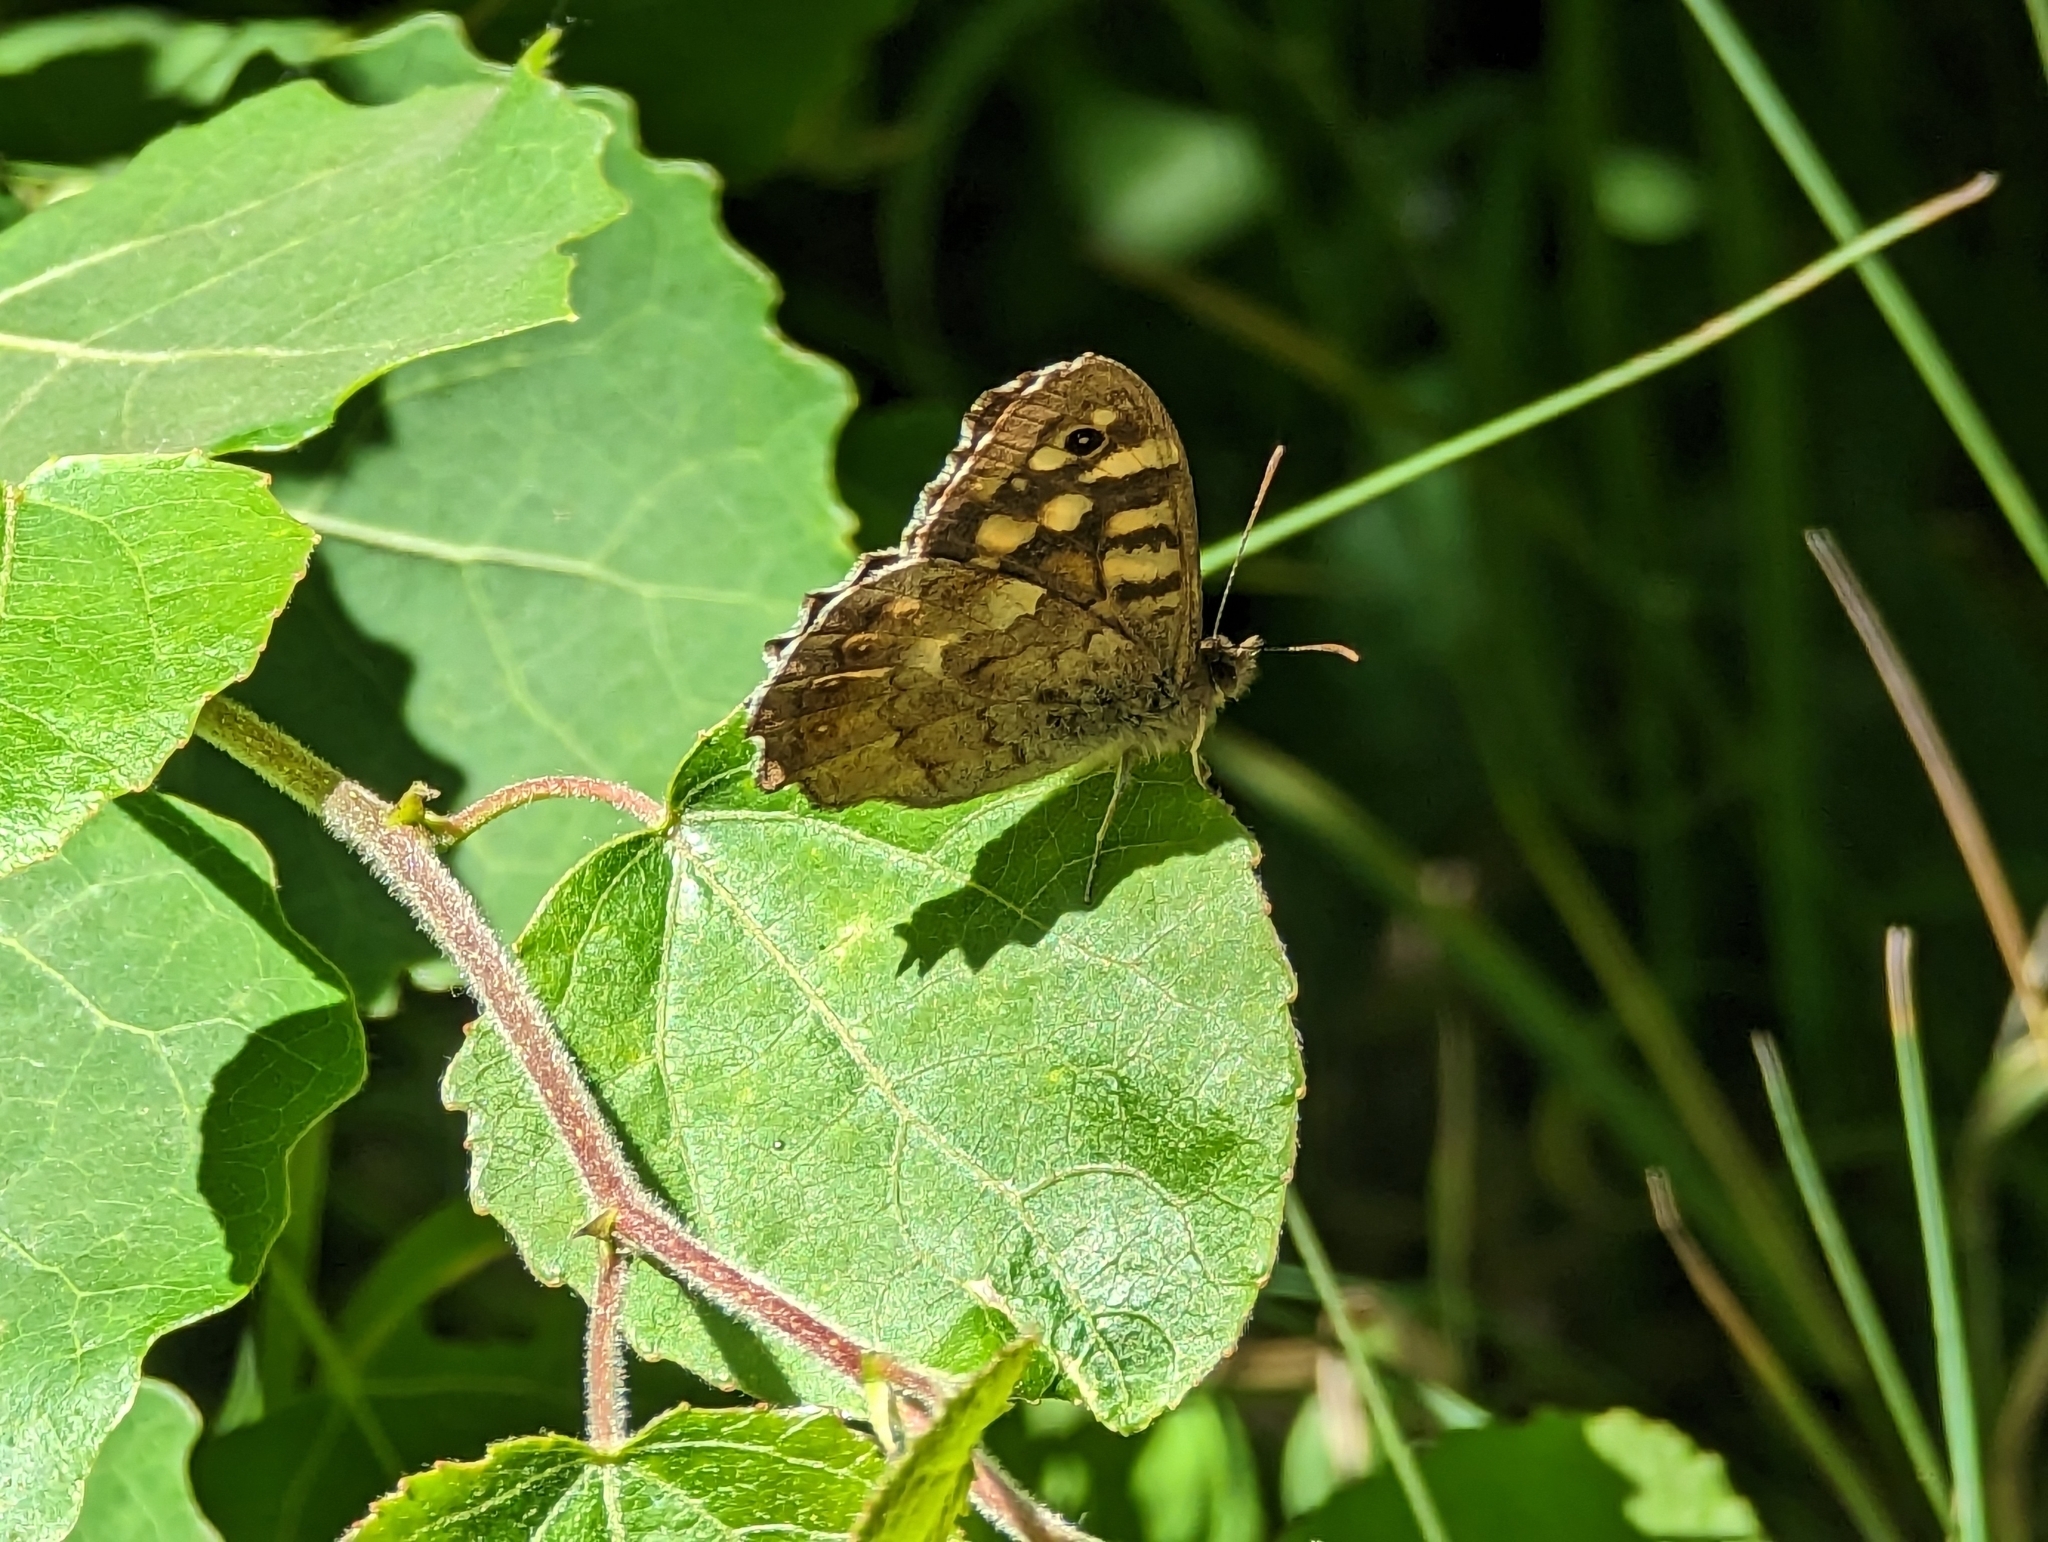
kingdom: Animalia
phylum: Arthropoda
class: Insecta
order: Lepidoptera
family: Nymphalidae
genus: Pararge
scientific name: Pararge aegeria
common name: Speckled wood
